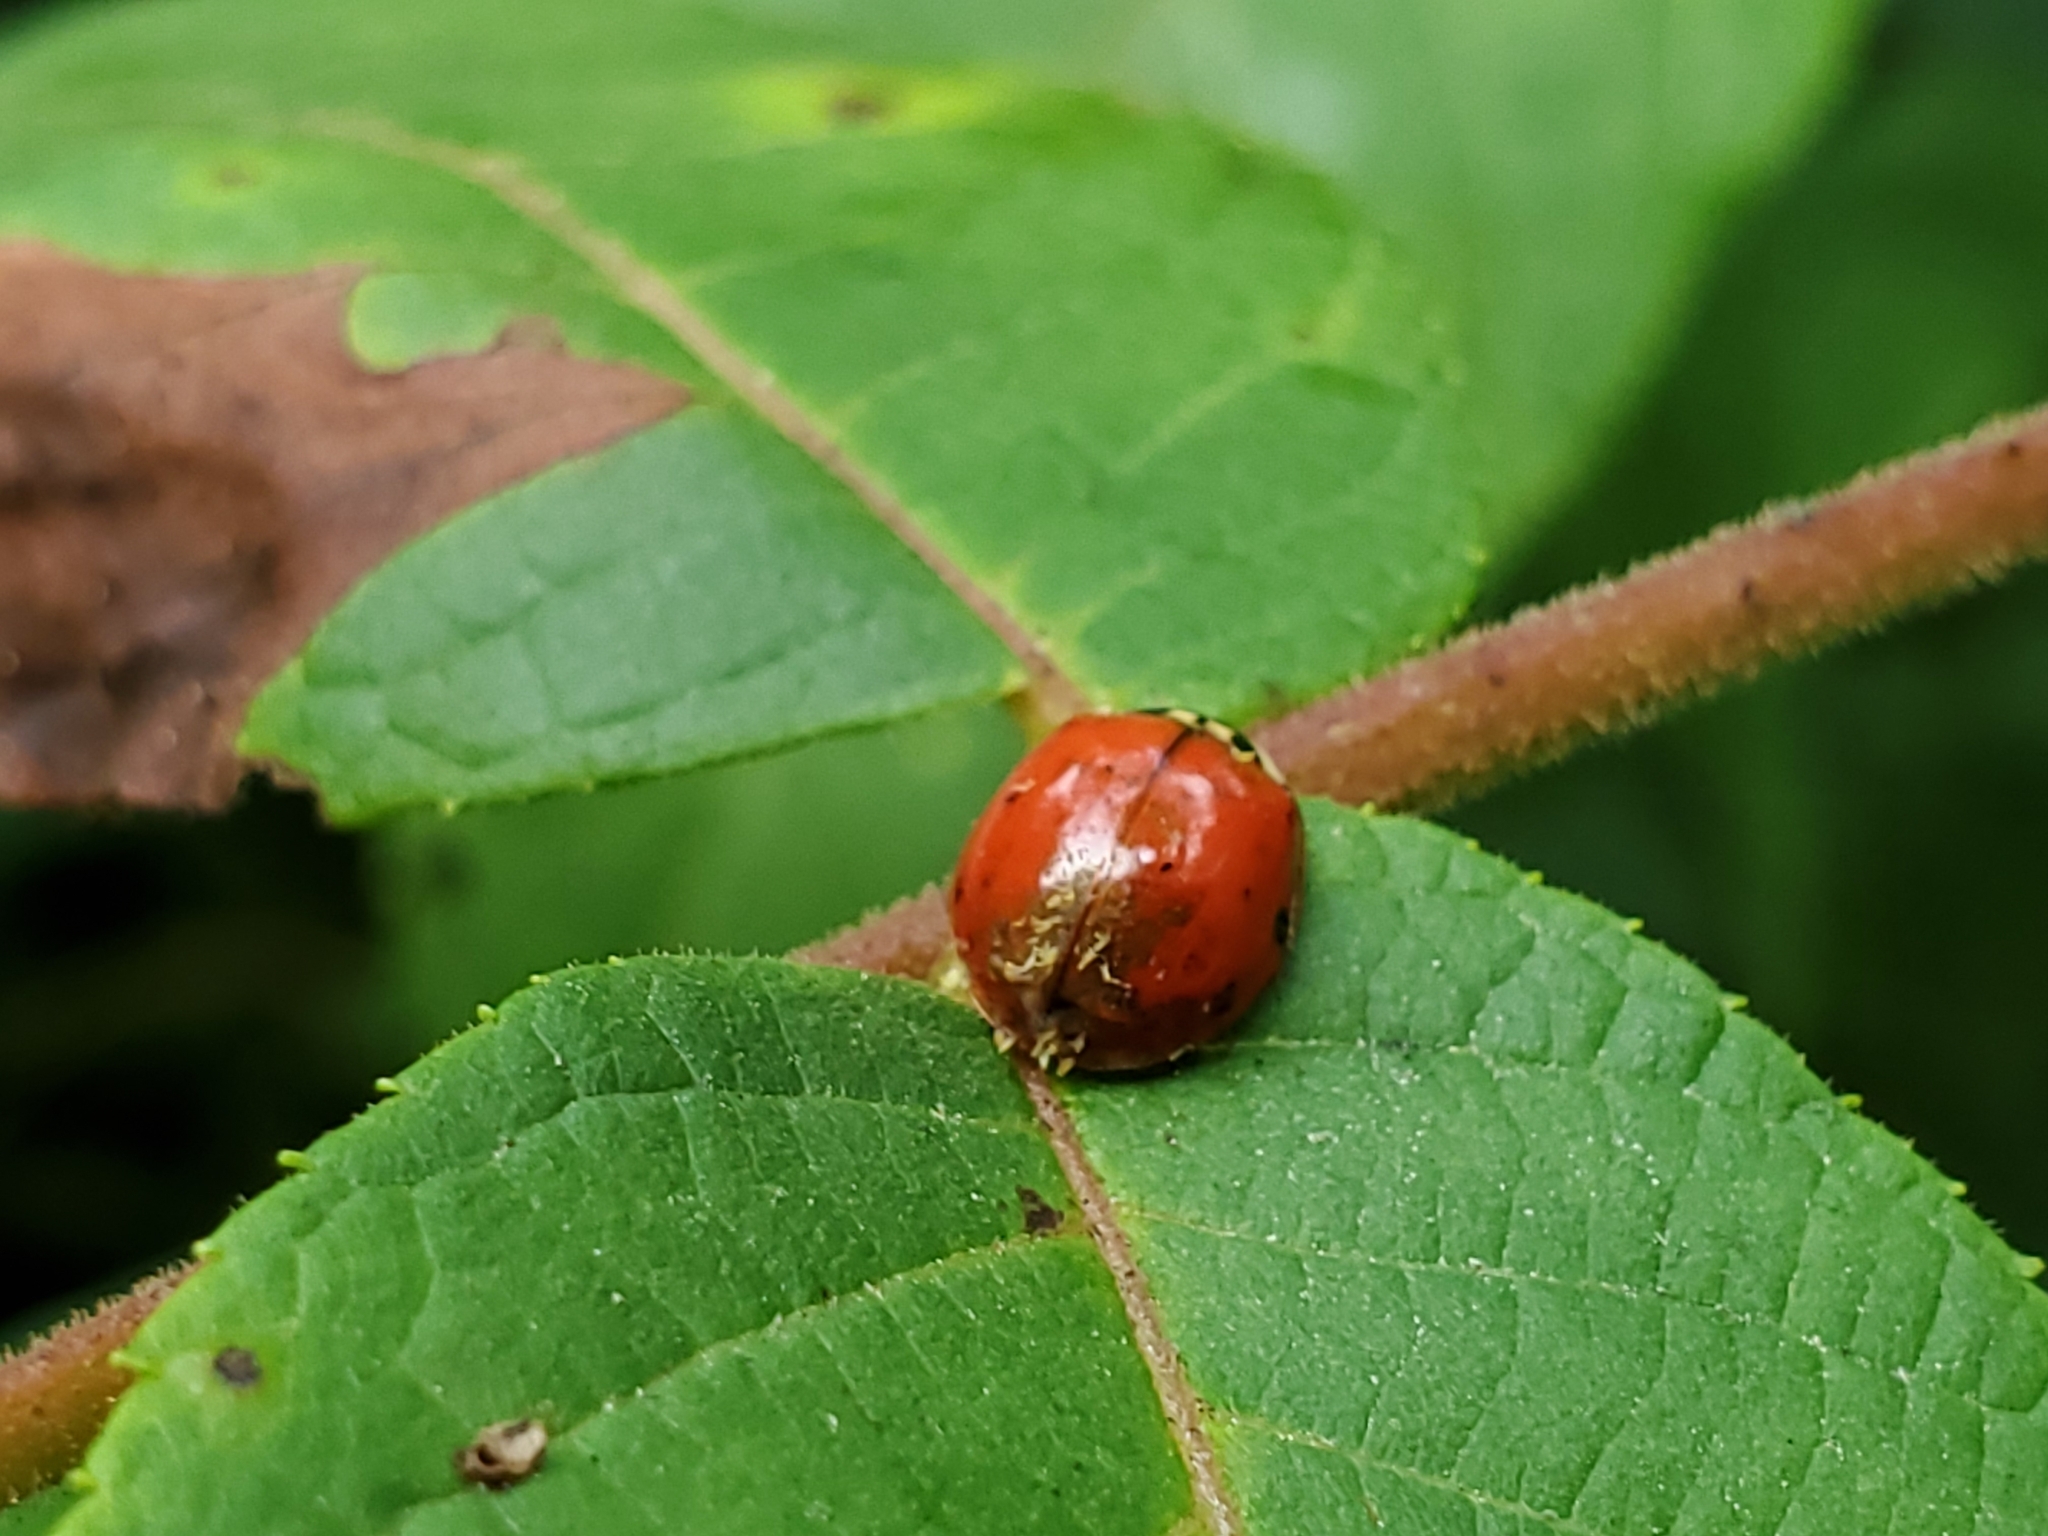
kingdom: Animalia
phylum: Arthropoda
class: Insecta
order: Coleoptera
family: Coccinellidae
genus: Harmonia
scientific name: Harmonia axyridis
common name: Harlequin ladybird
